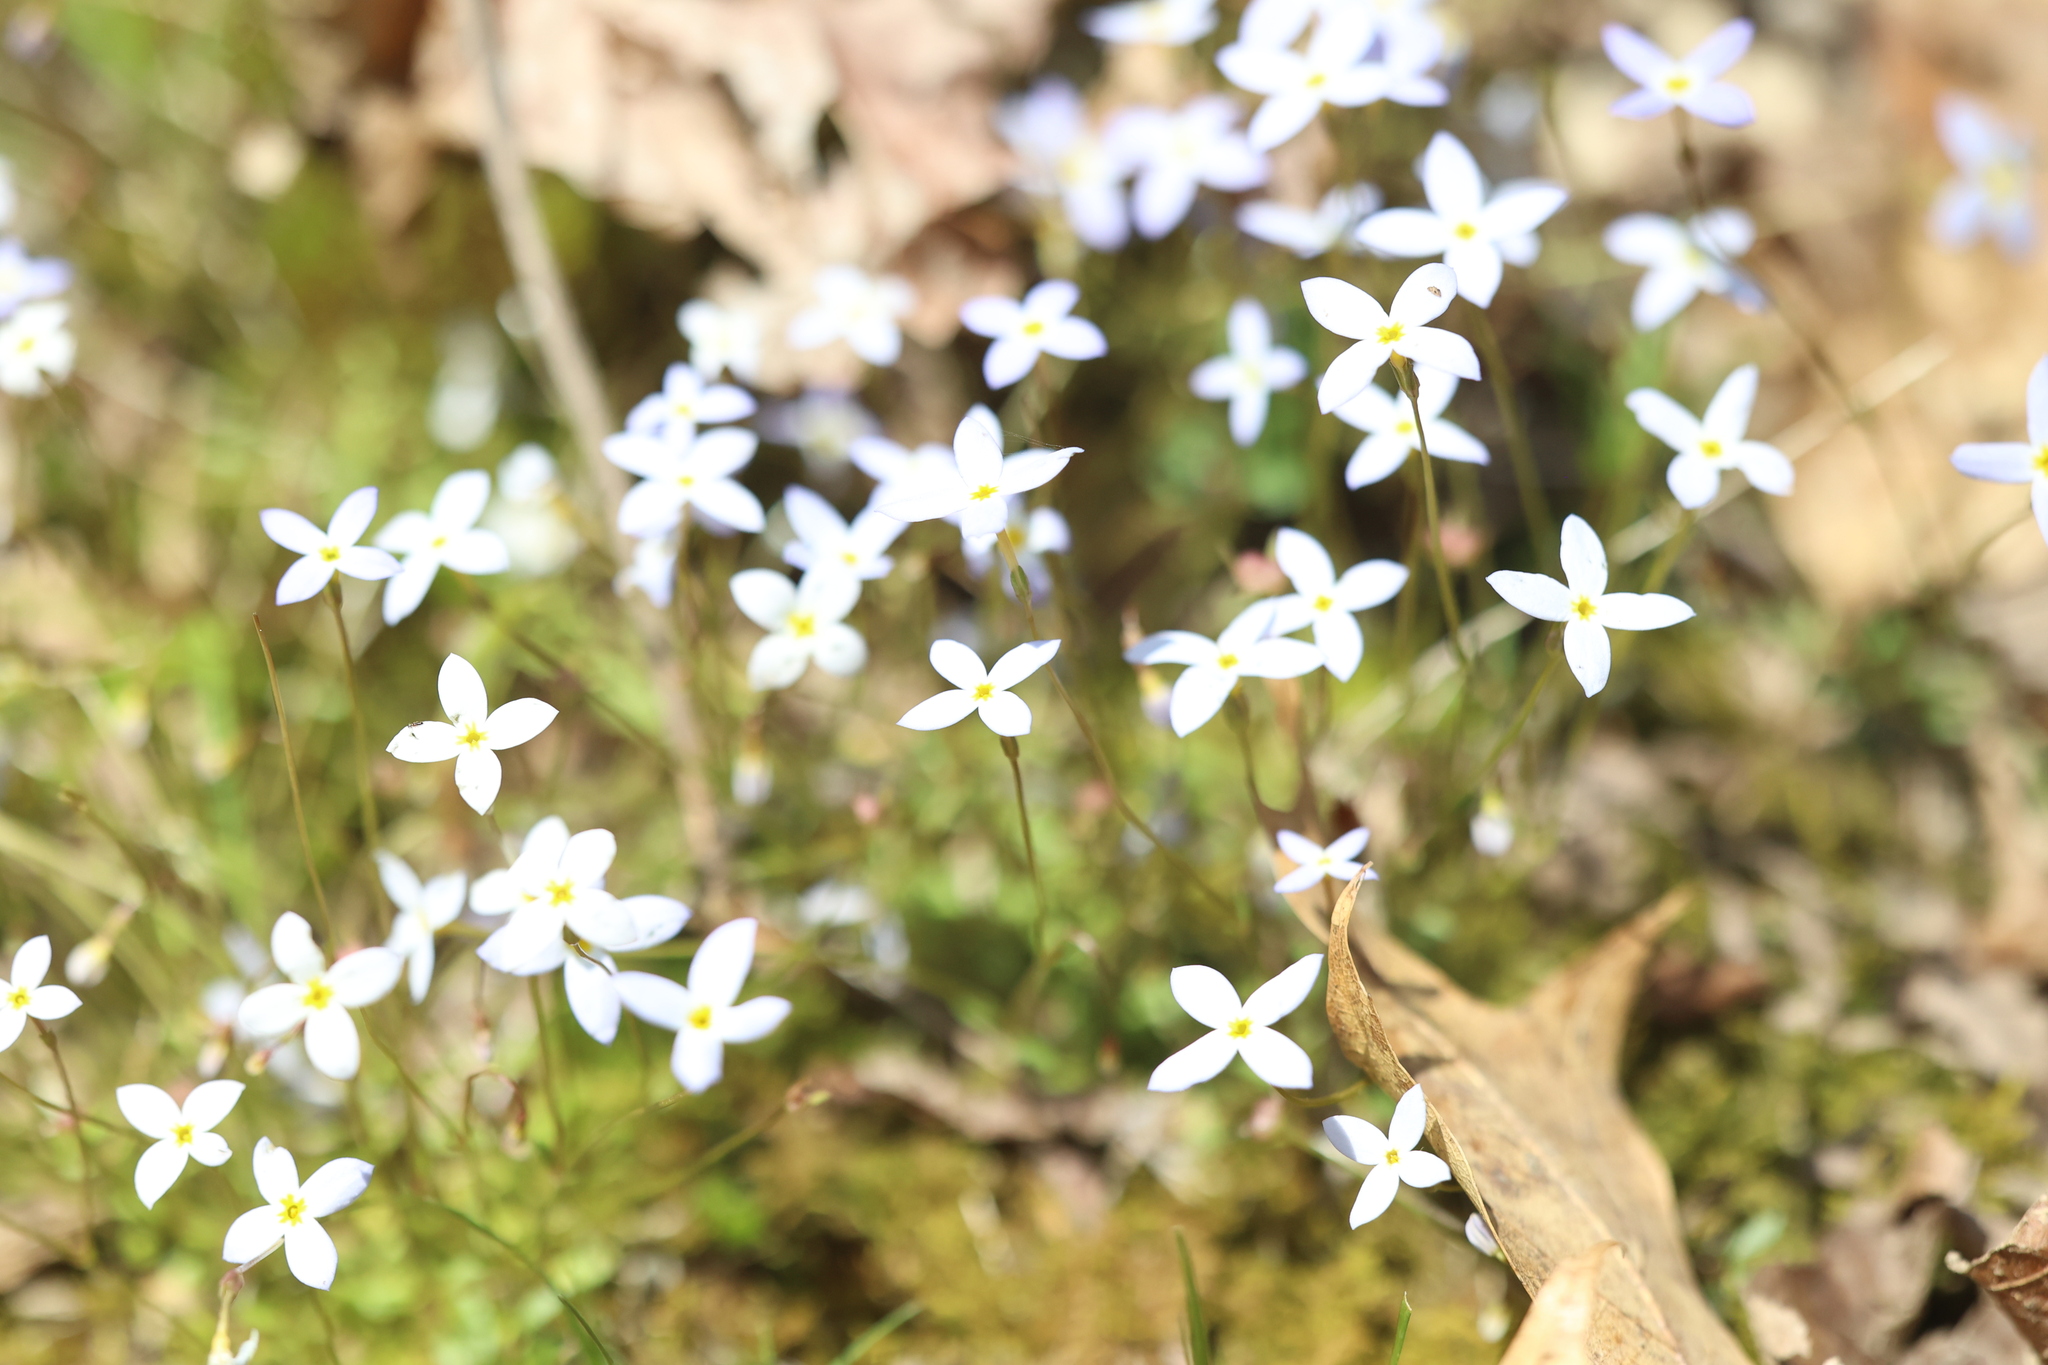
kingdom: Plantae
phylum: Tracheophyta
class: Magnoliopsida
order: Gentianales
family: Rubiaceae
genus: Houstonia
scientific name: Houstonia caerulea
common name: Bluets
